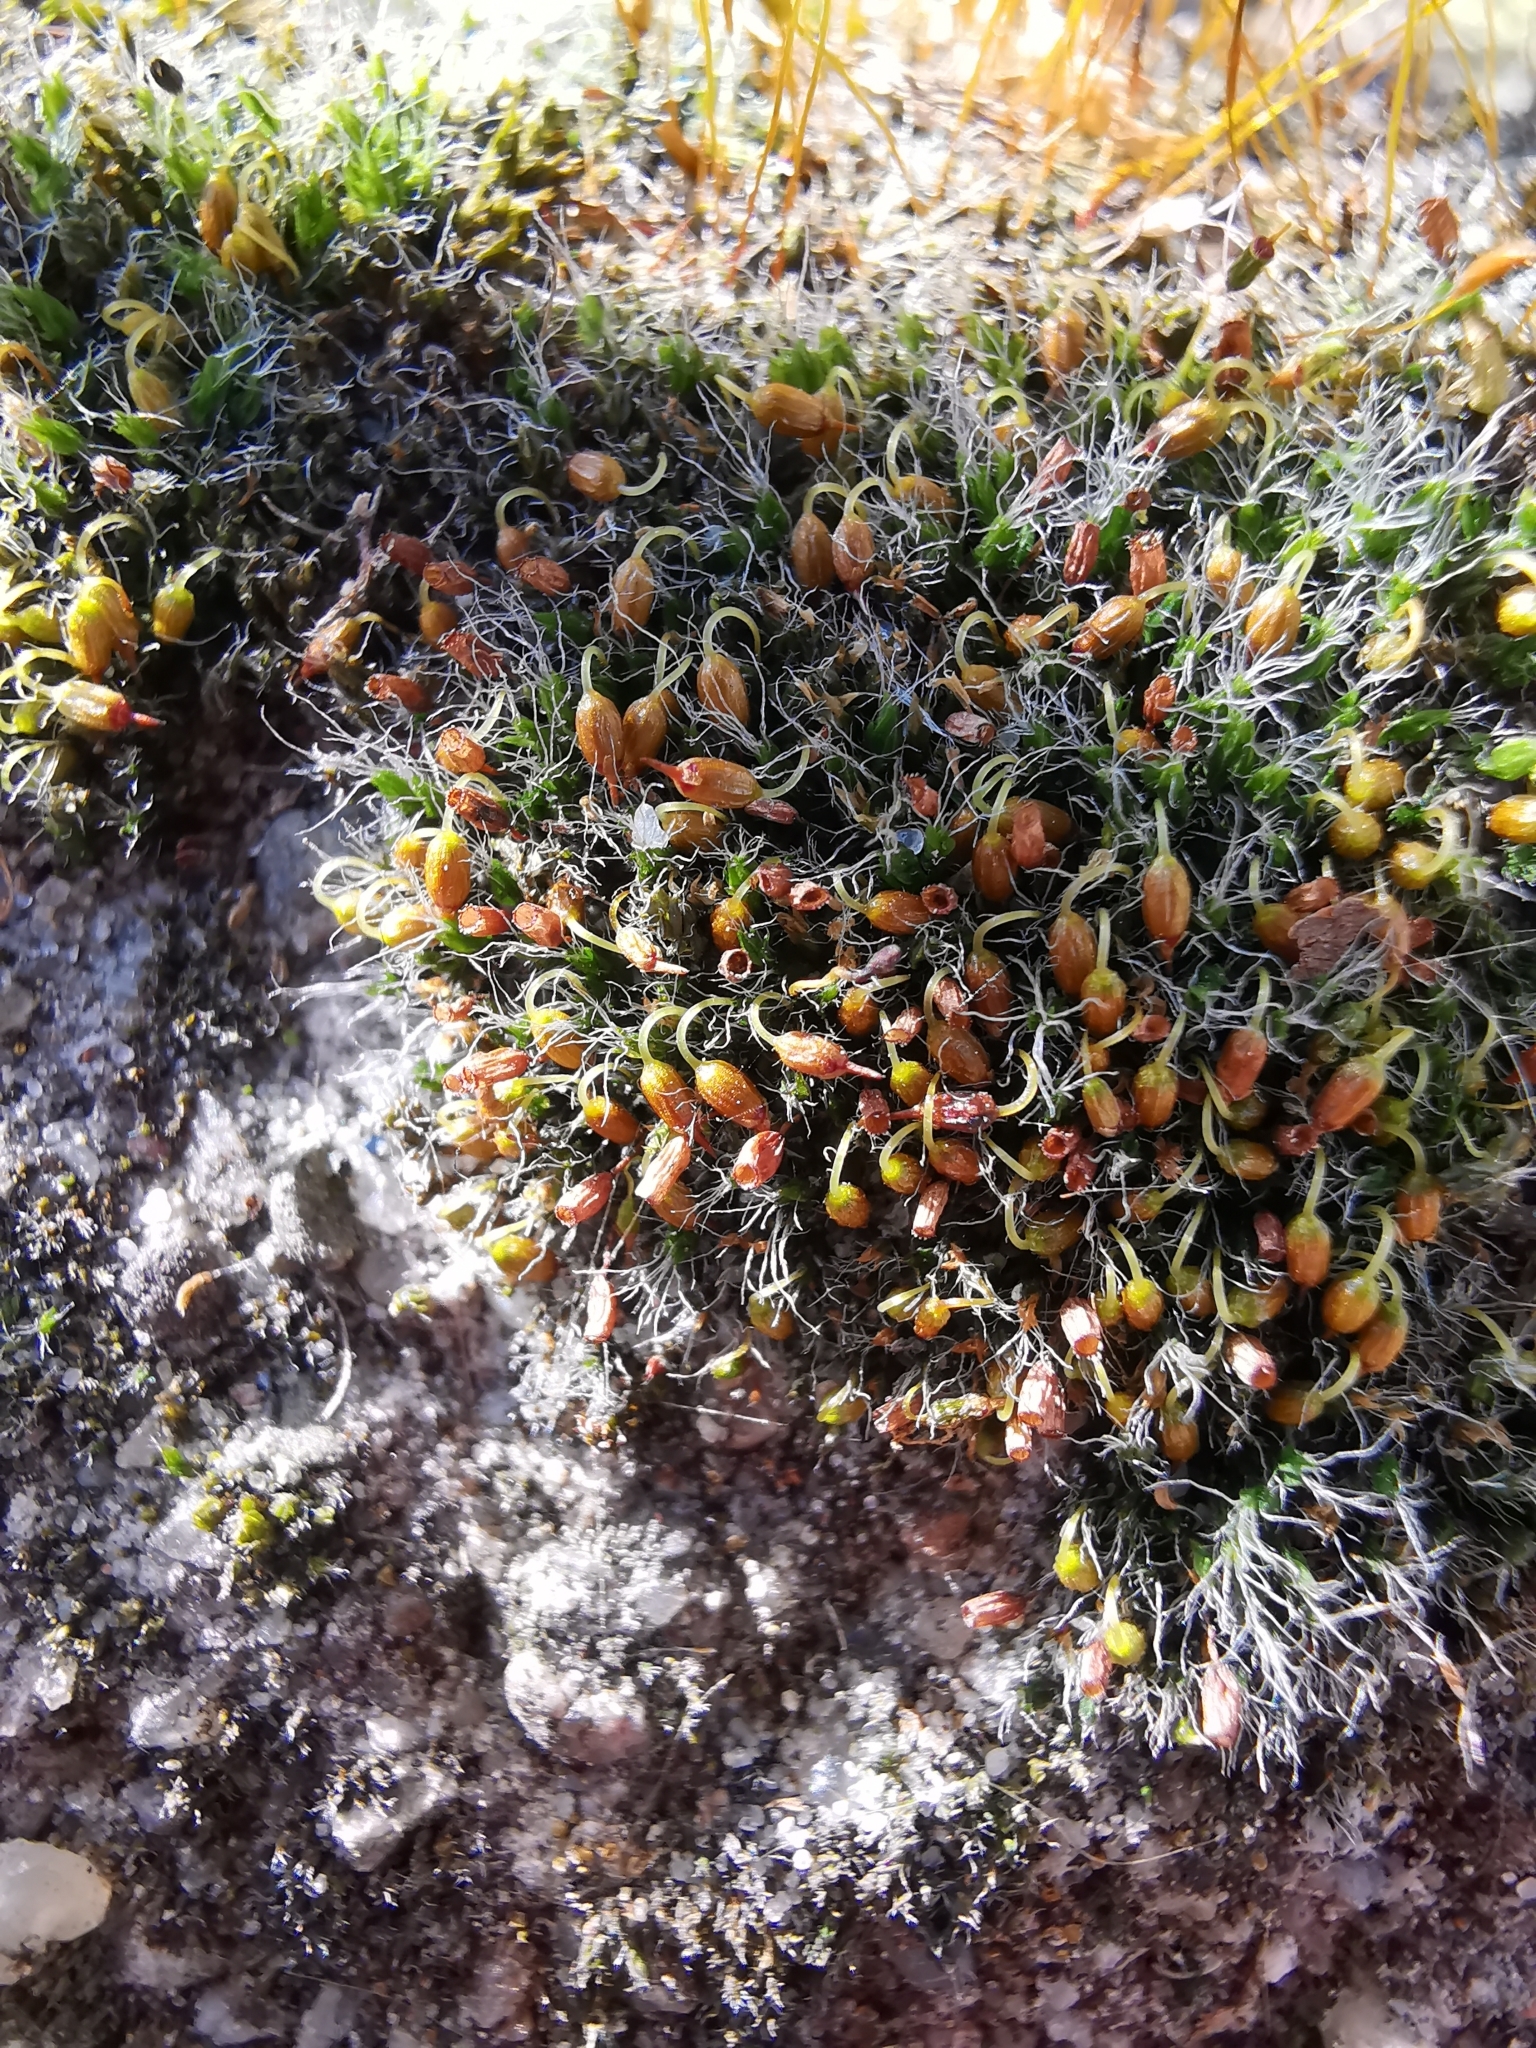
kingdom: Plantae
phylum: Bryophyta
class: Bryopsida
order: Grimmiales
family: Grimmiaceae
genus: Grimmia
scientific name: Grimmia pulvinata
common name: Grey-cushioned grimmia
